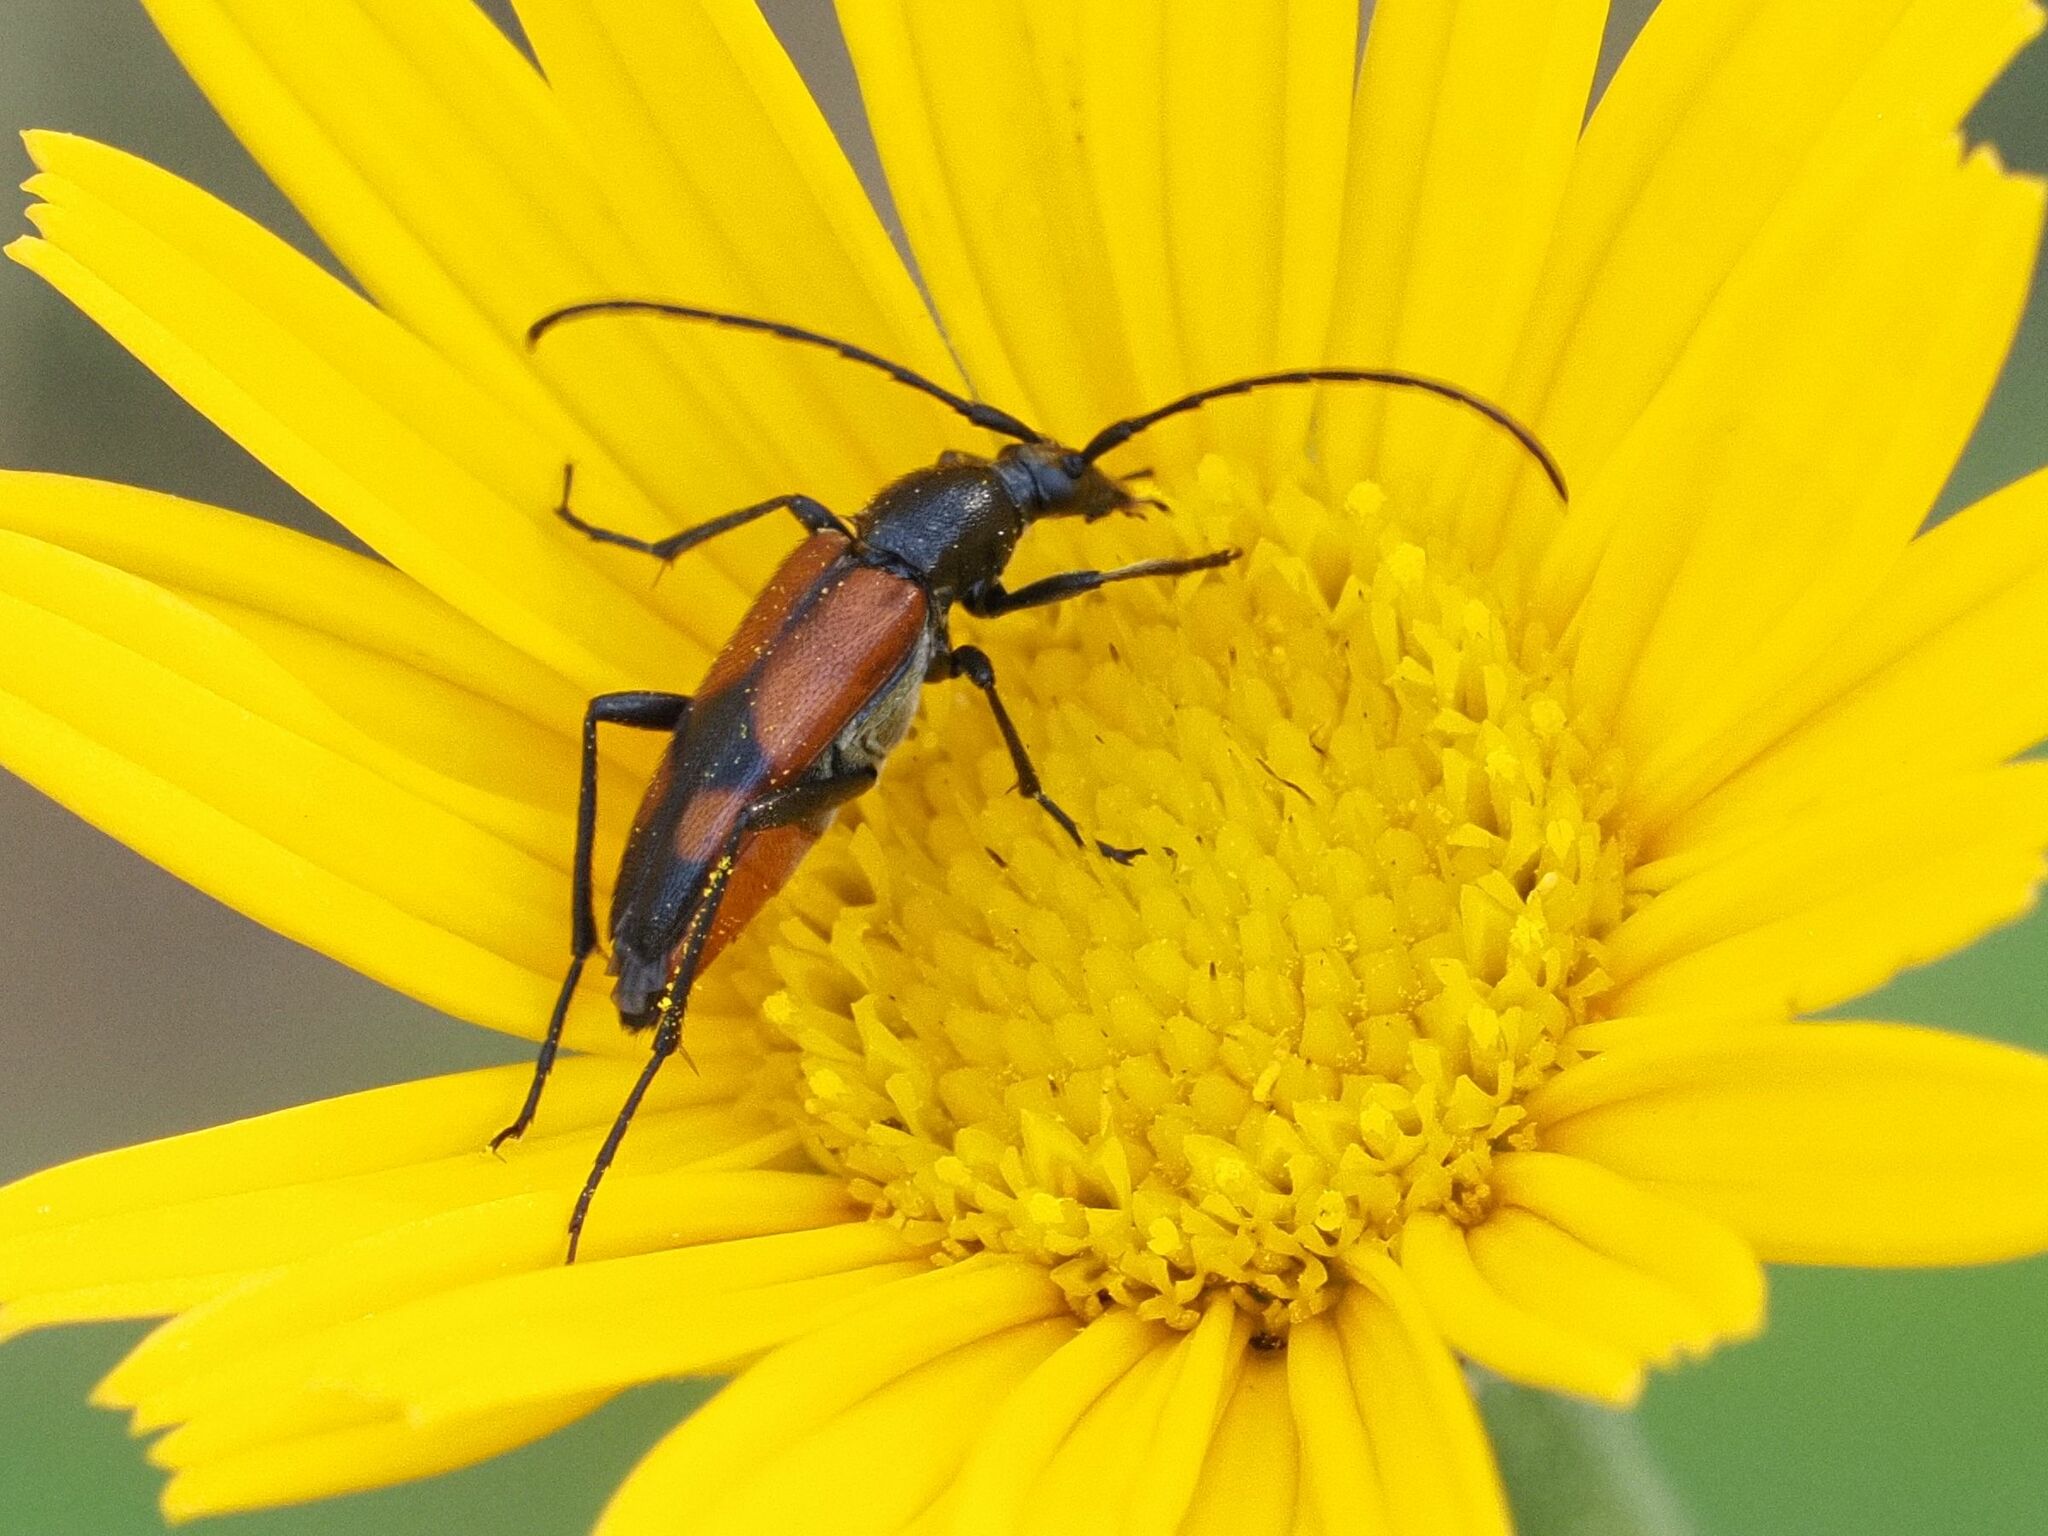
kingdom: Animalia
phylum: Arthropoda
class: Insecta
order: Coleoptera
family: Cerambycidae
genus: Stenurella
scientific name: Stenurella bifasciata
